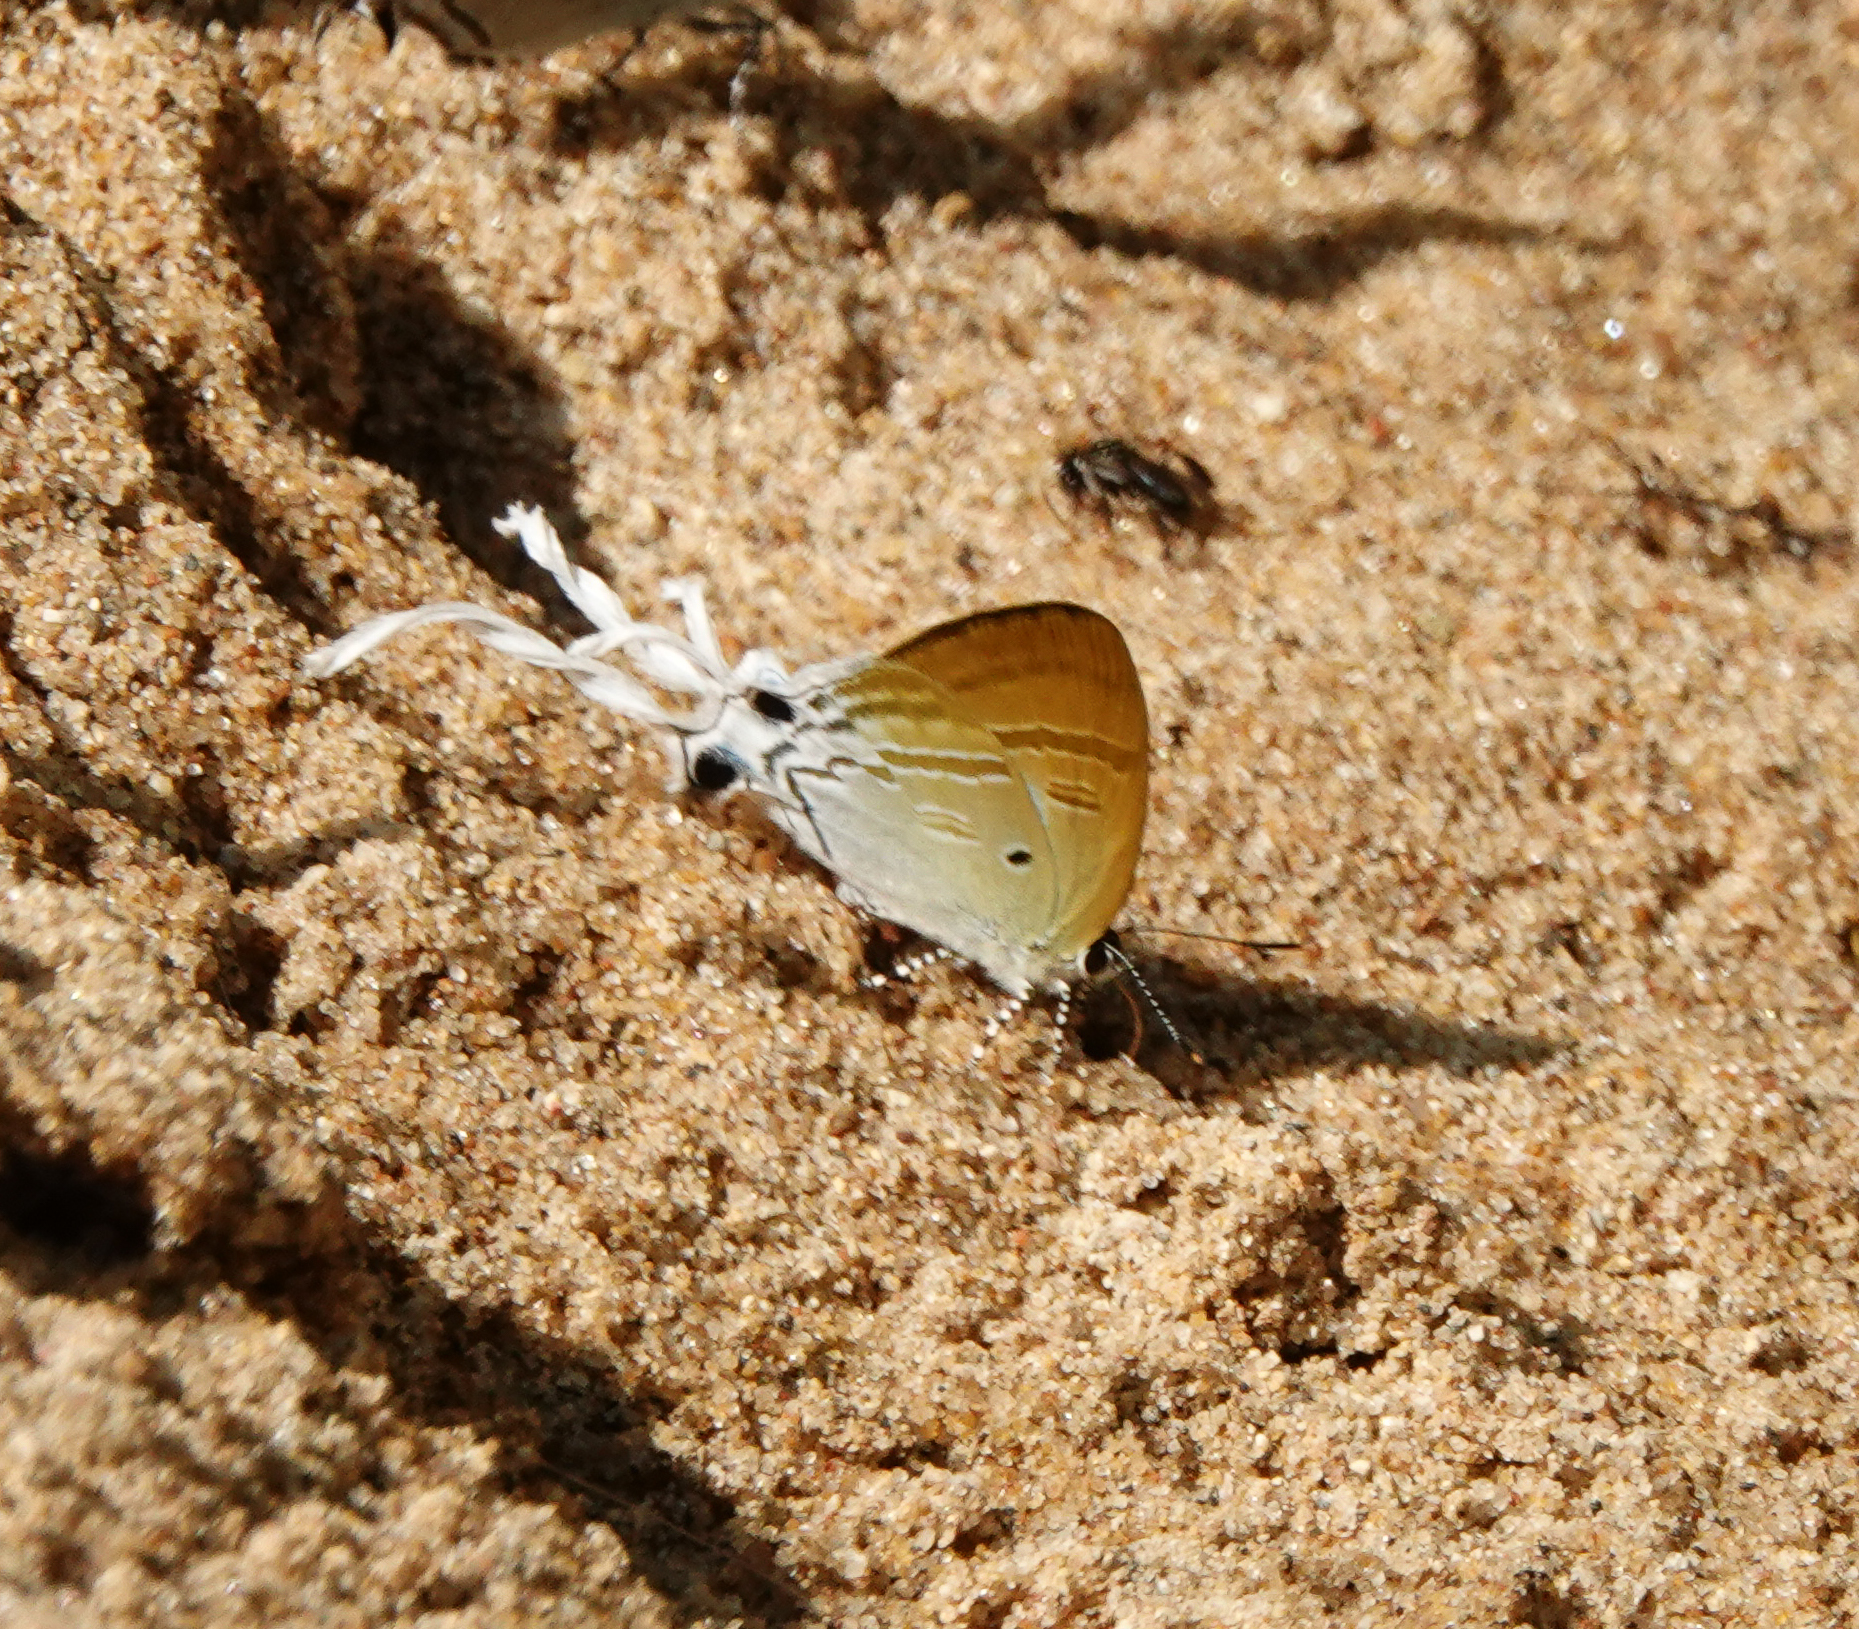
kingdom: Animalia
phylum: Arthropoda
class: Insecta
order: Lepidoptera
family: Lycaenidae
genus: Zeltus
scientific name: Zeltus amasa
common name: Fluffy tit
